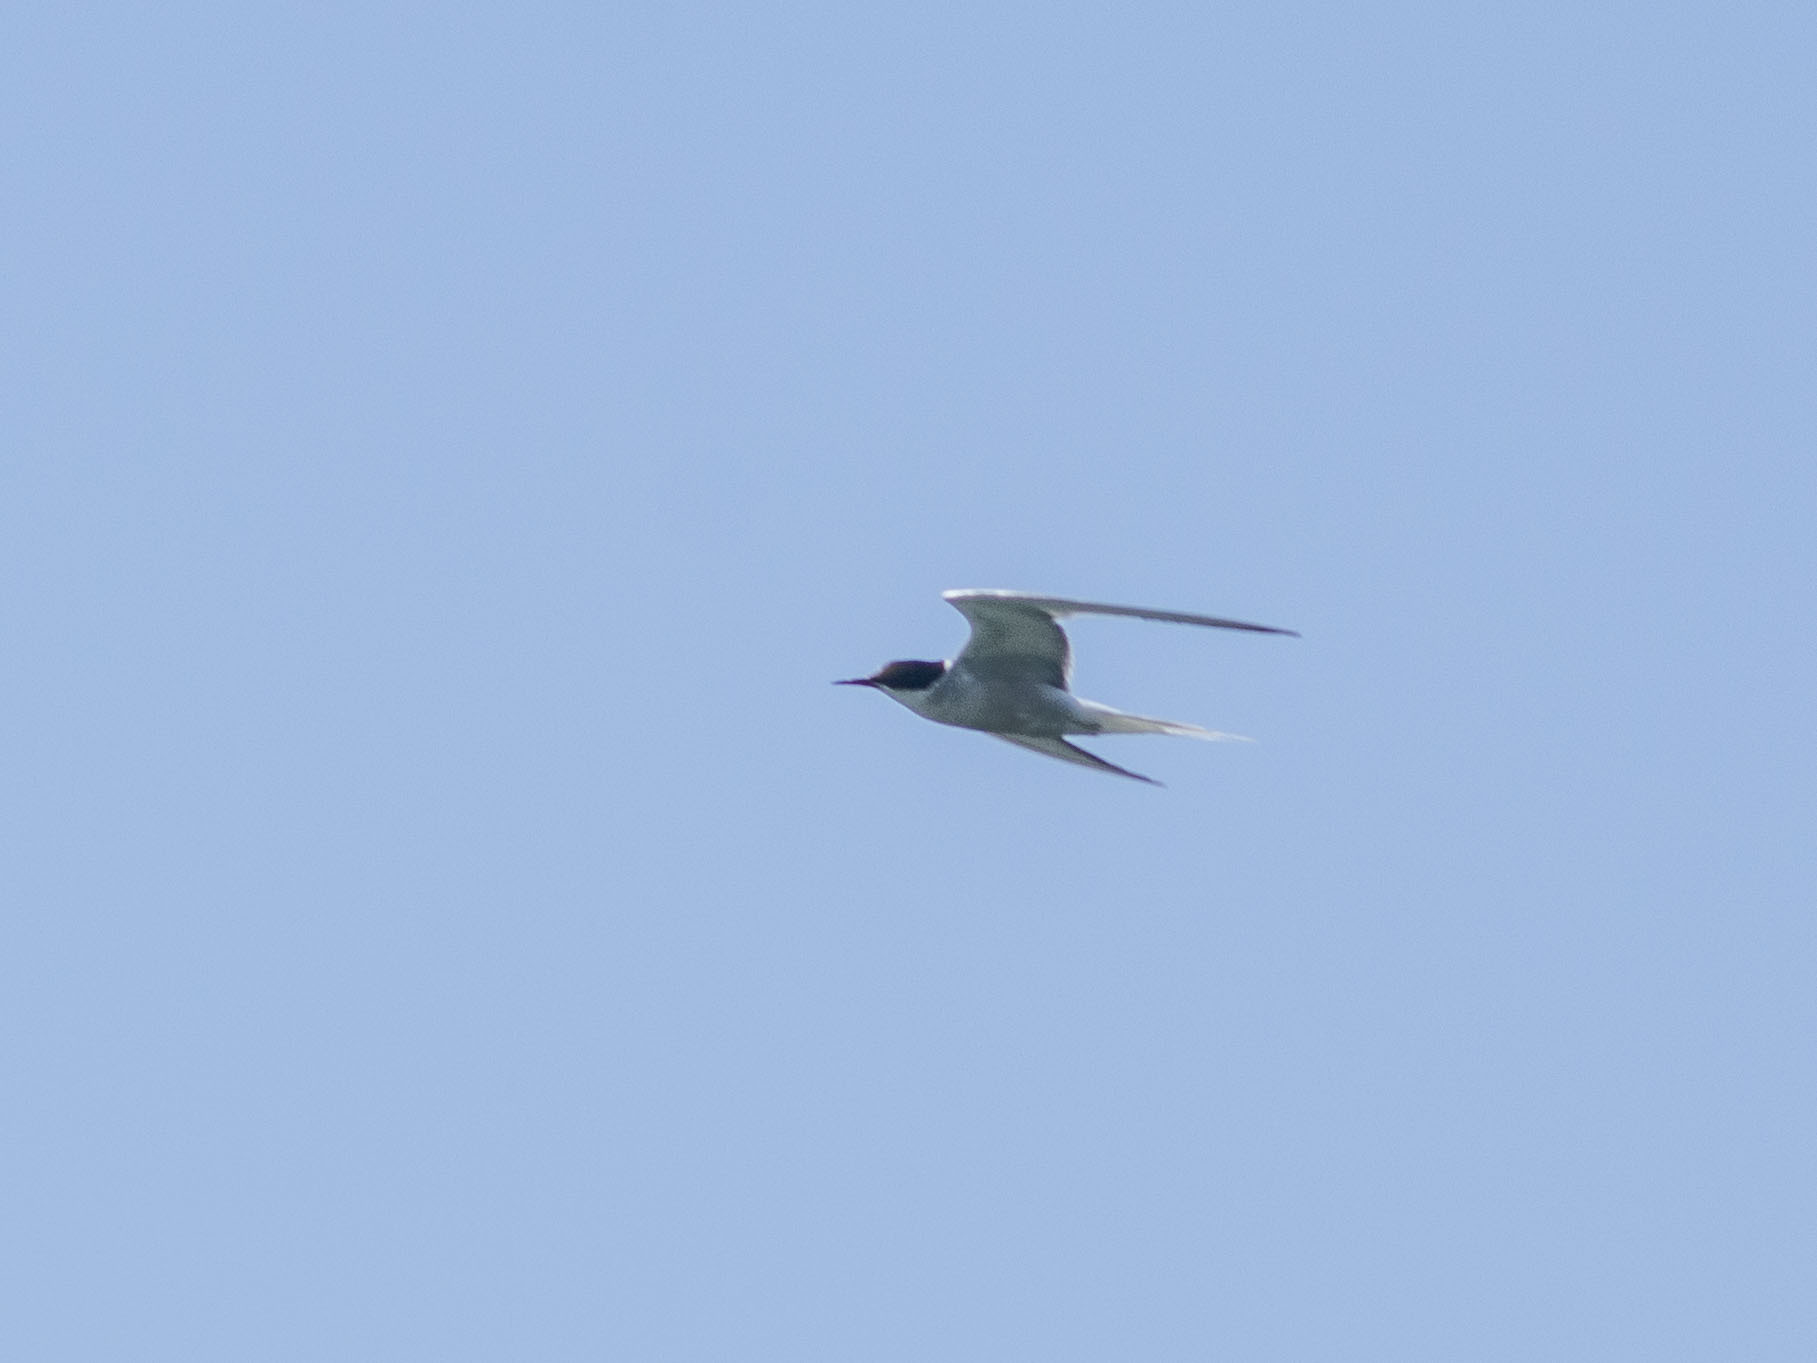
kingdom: Animalia
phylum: Chordata
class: Aves
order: Charadriiformes
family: Laridae
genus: Sterna
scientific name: Sterna hirundo
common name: Common tern
